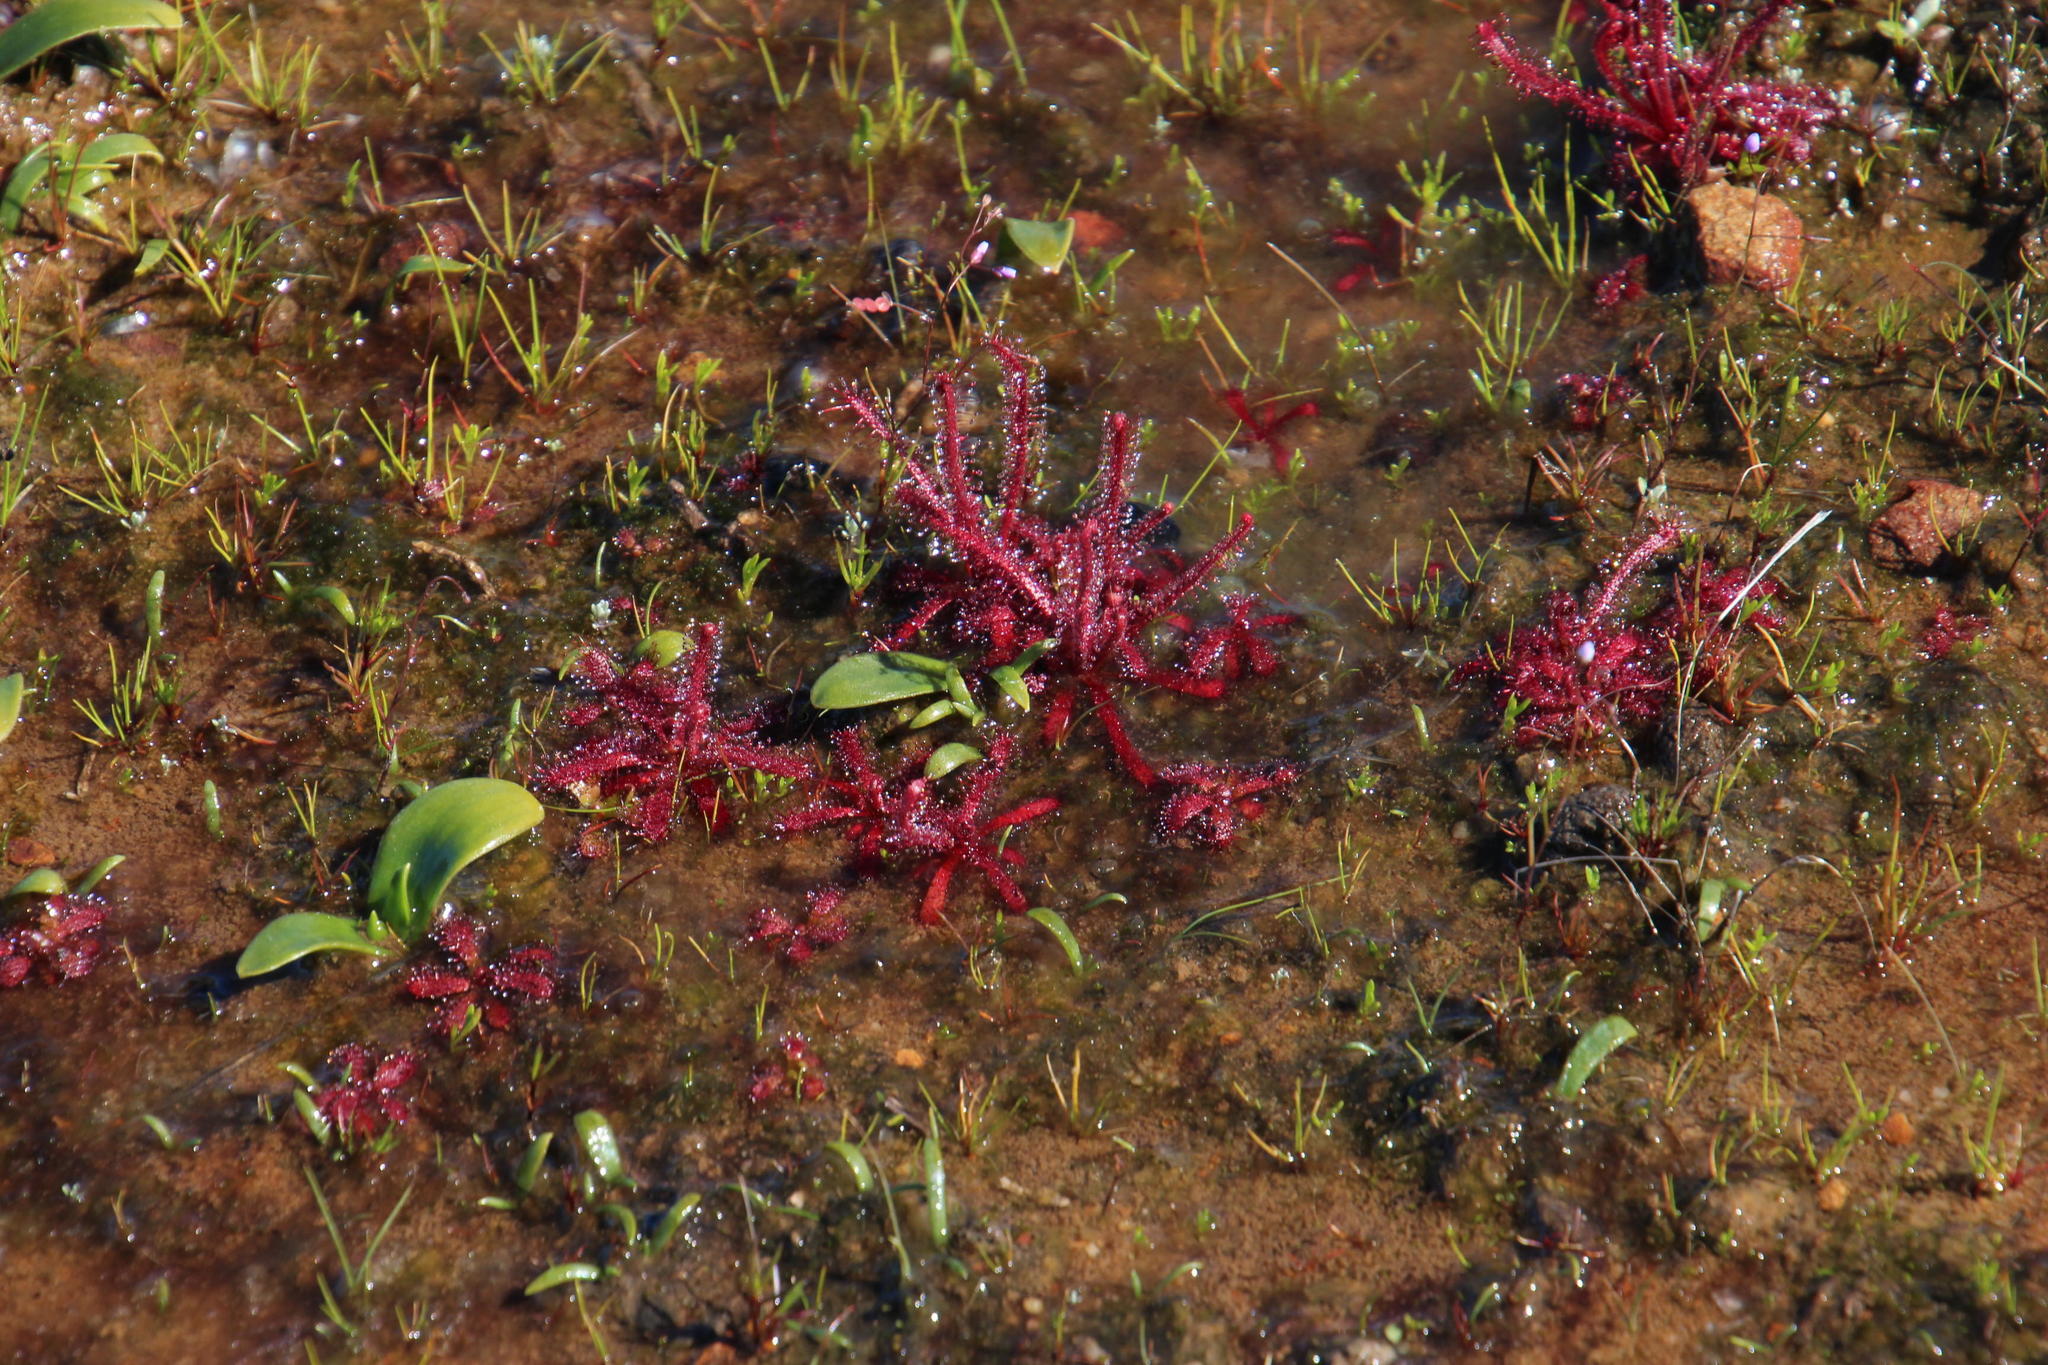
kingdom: Plantae
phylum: Tracheophyta
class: Magnoliopsida
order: Caryophyllales
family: Droseraceae
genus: Drosera
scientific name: Drosera alba
